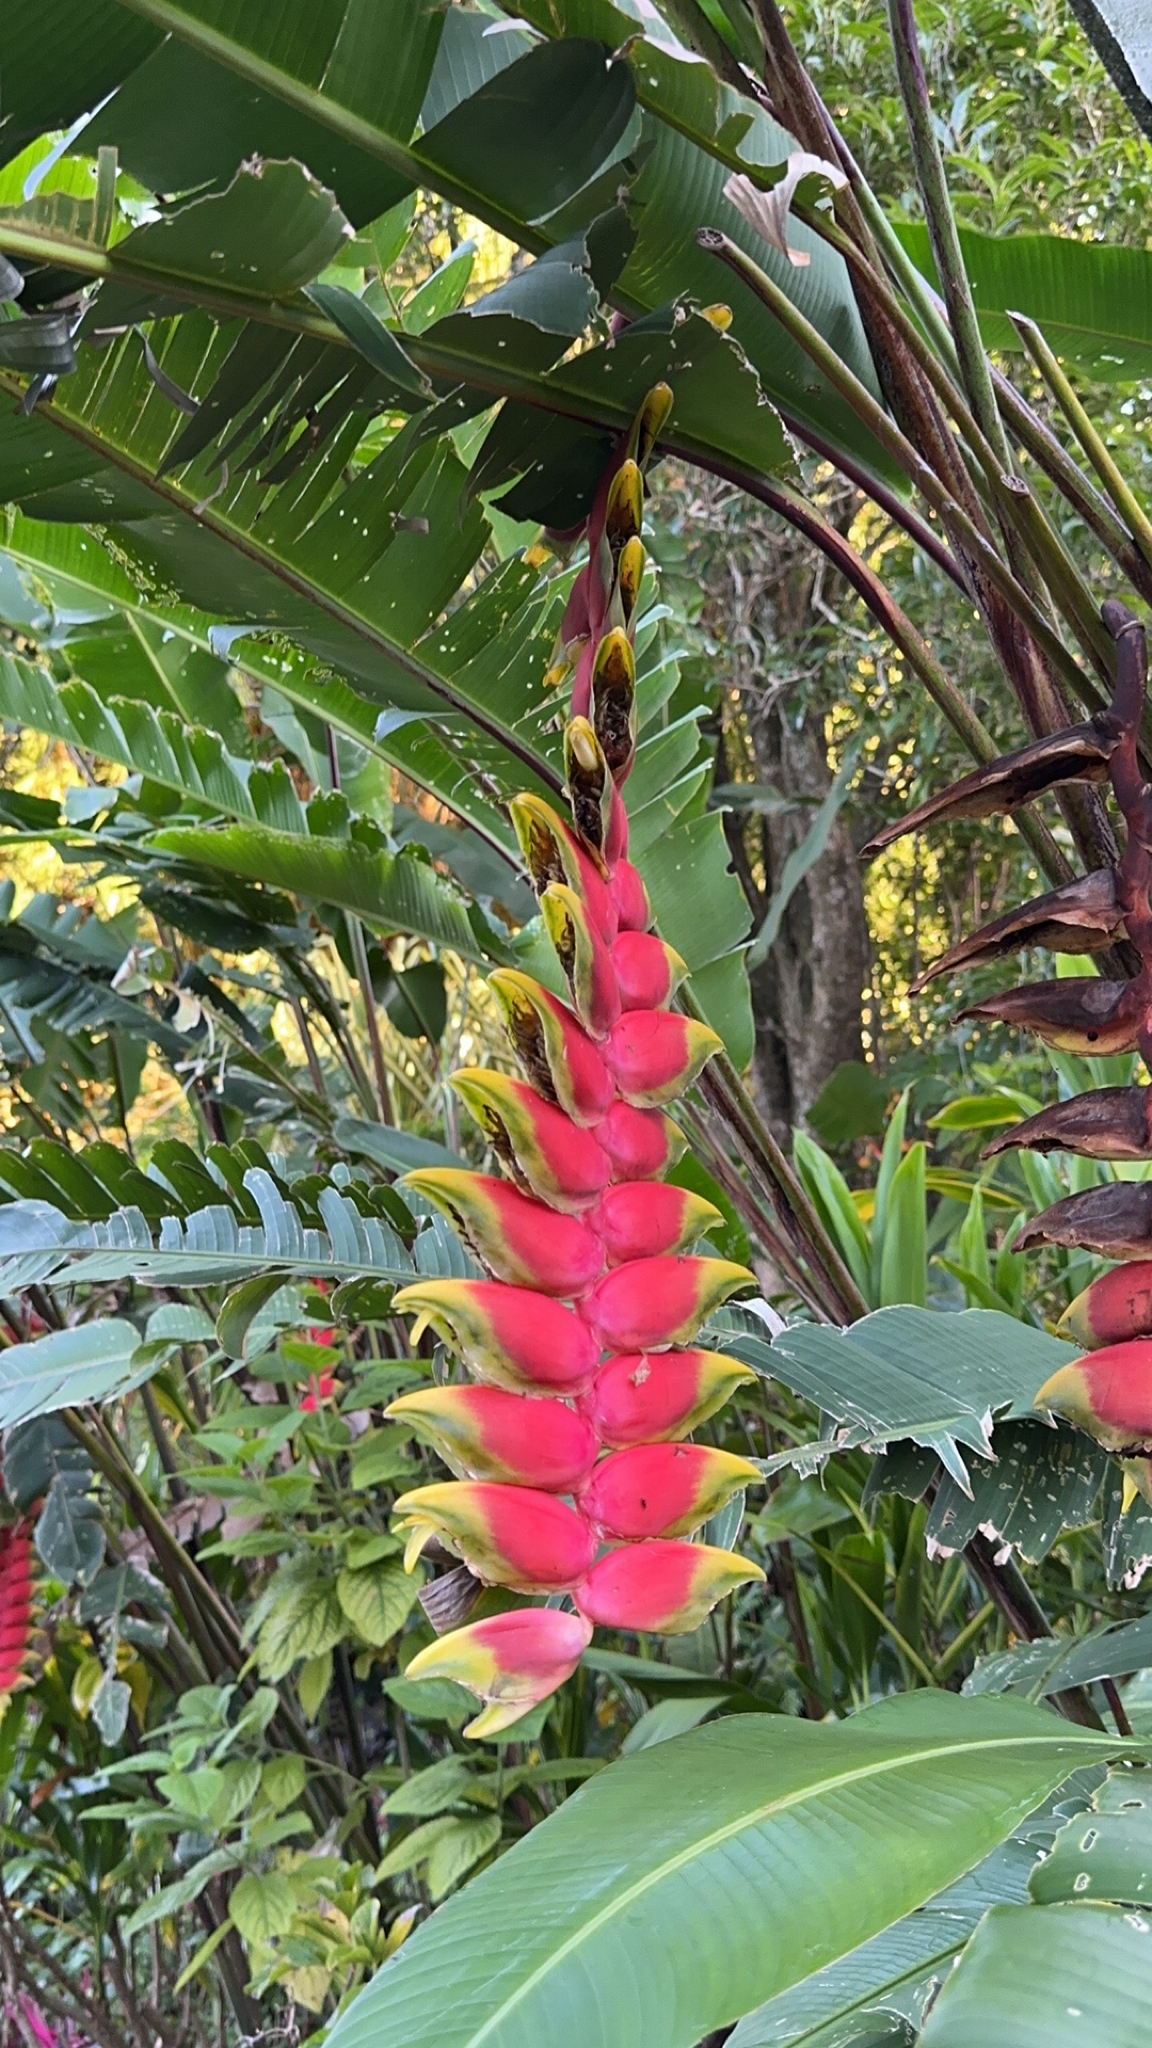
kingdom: Plantae
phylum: Tracheophyta
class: Liliopsida
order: Zingiberales
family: Heliconiaceae
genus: Heliconia
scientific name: Heliconia rostrata
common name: False bird of paradise
